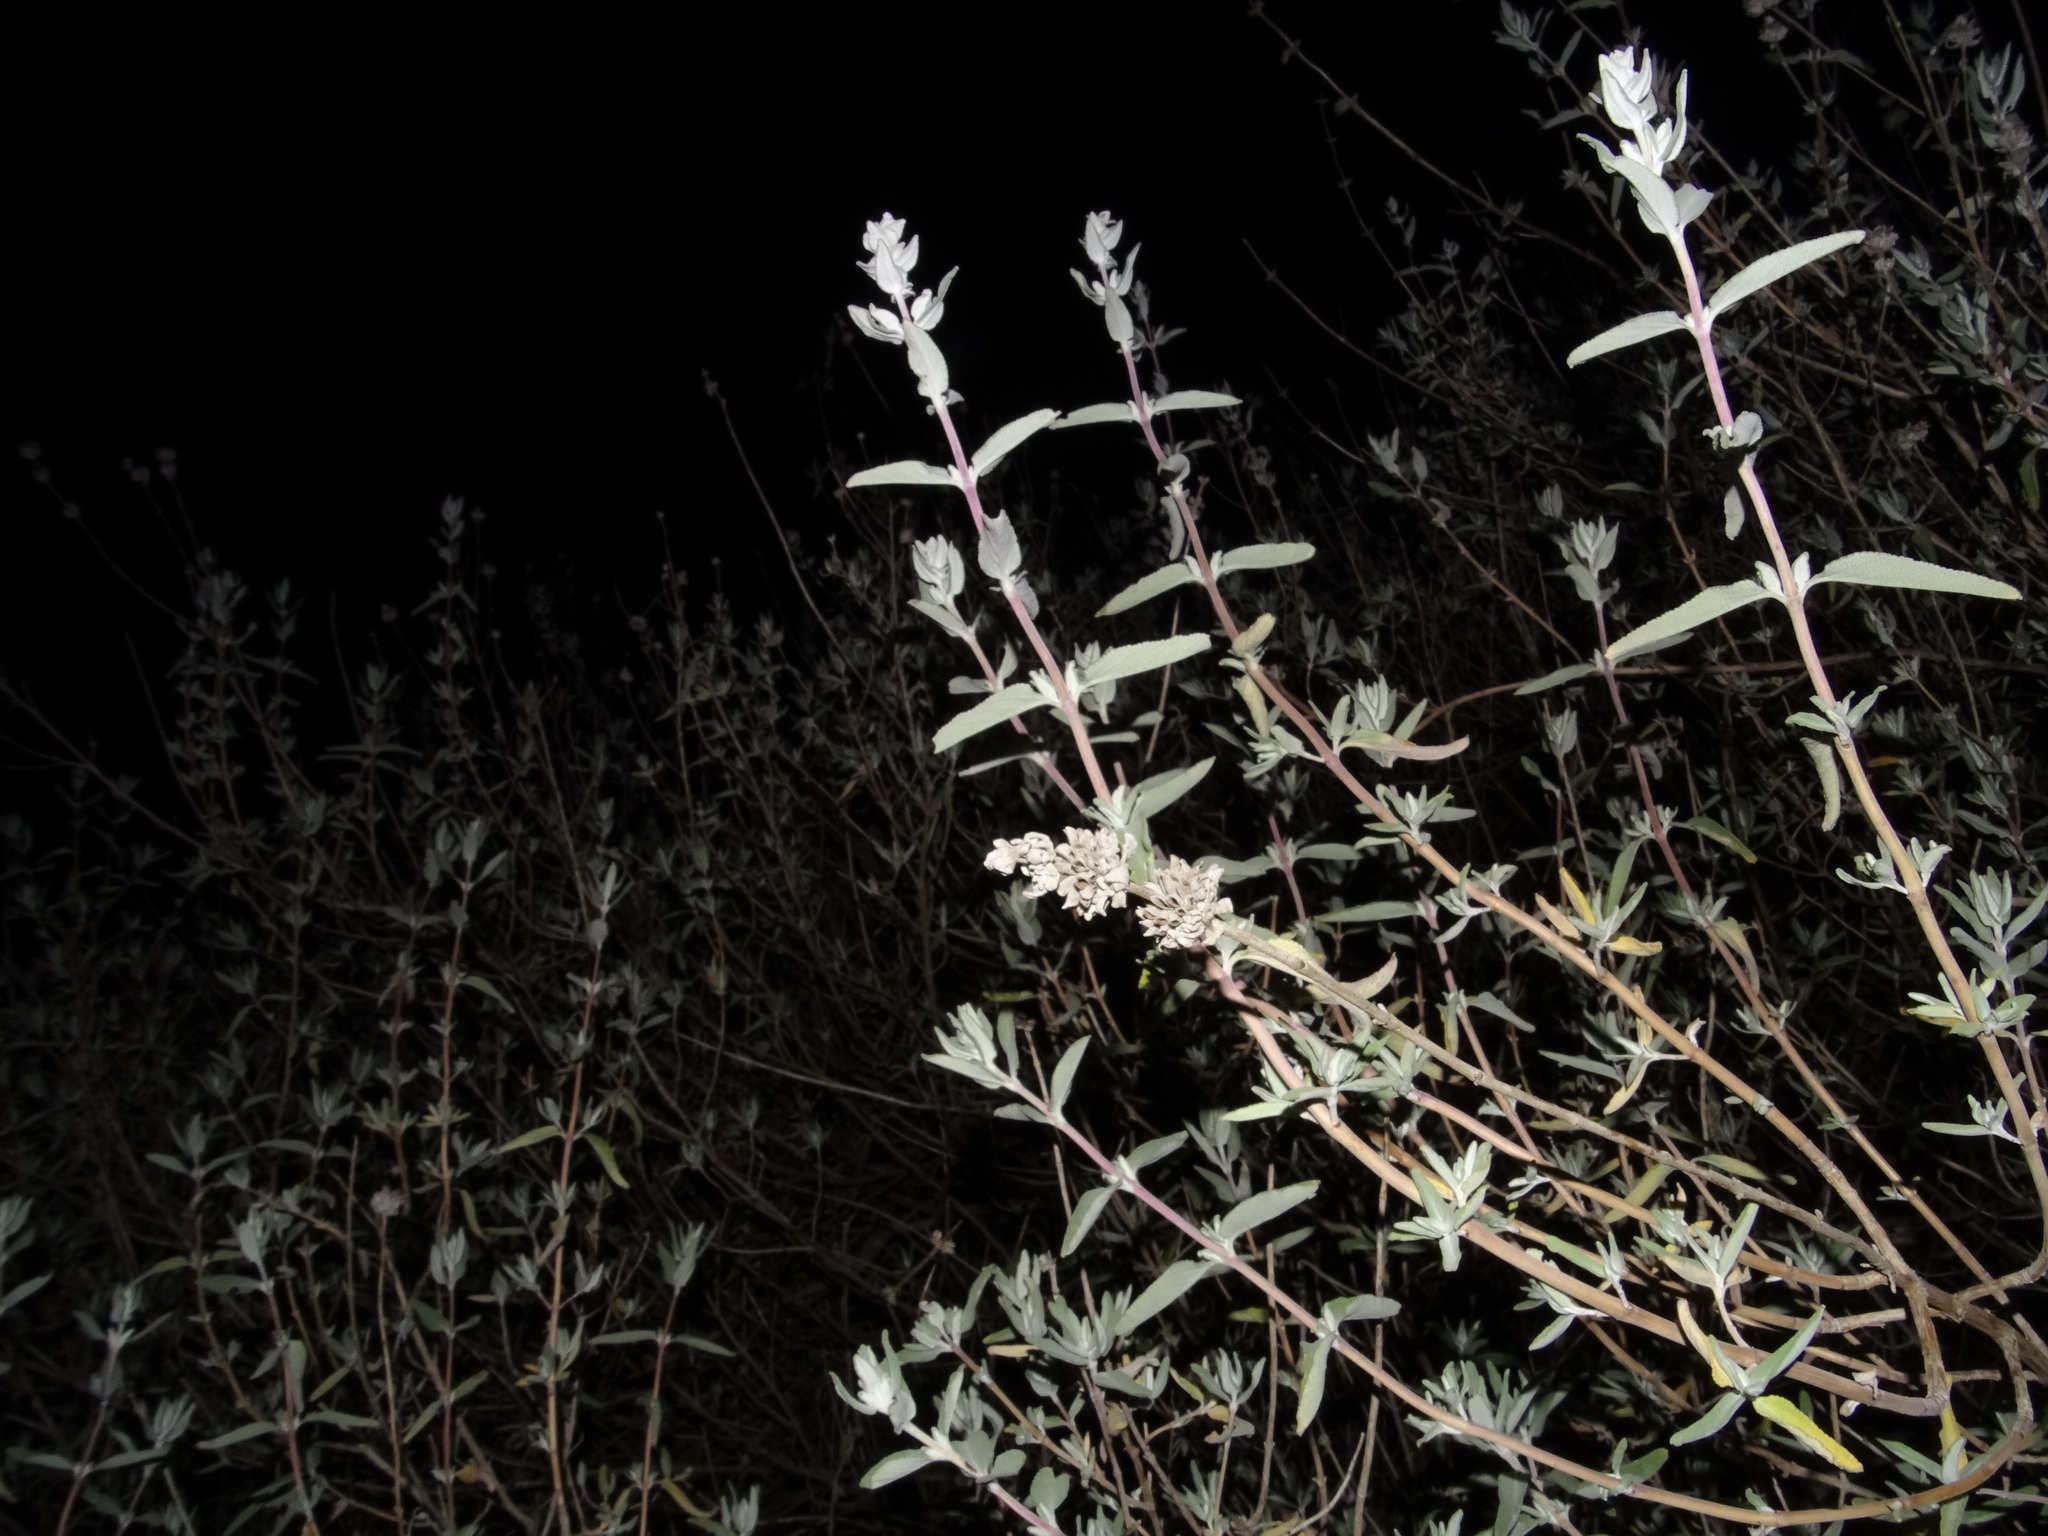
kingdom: Plantae
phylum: Tracheophyta
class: Magnoliopsida
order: Lamiales
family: Lamiaceae
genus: Salvia
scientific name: Salvia leucophylla
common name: Purple sage
